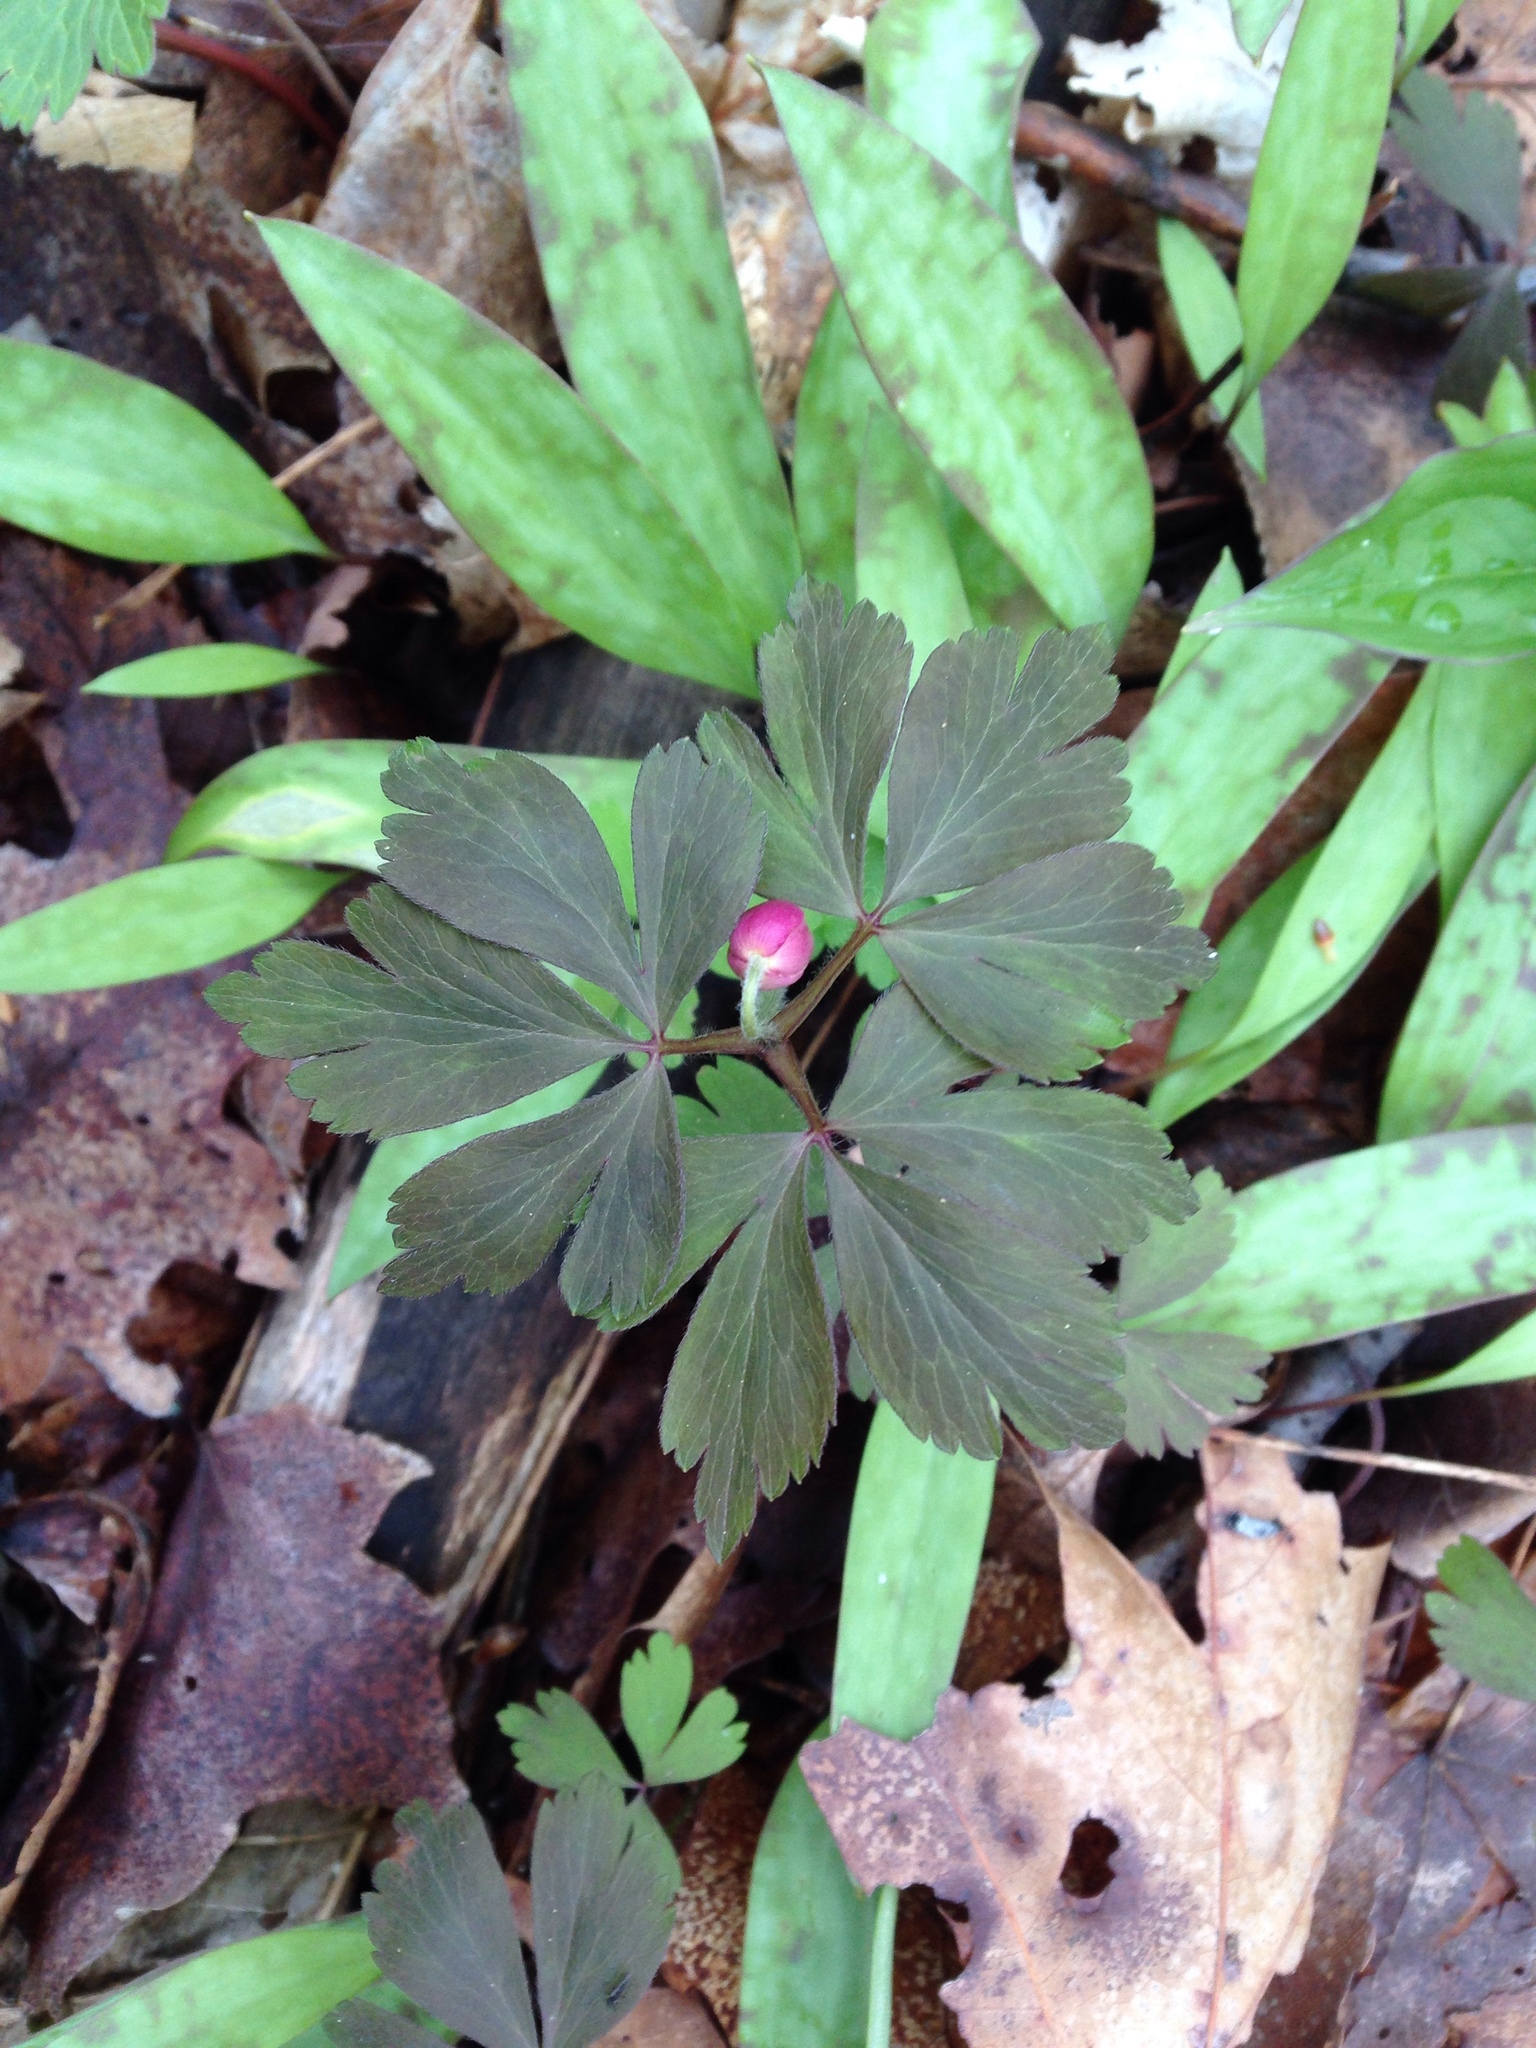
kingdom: Plantae
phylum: Tracheophyta
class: Magnoliopsida
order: Ranunculales
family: Ranunculaceae
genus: Anemone
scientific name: Anemone quinquefolia
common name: Wood anemone
